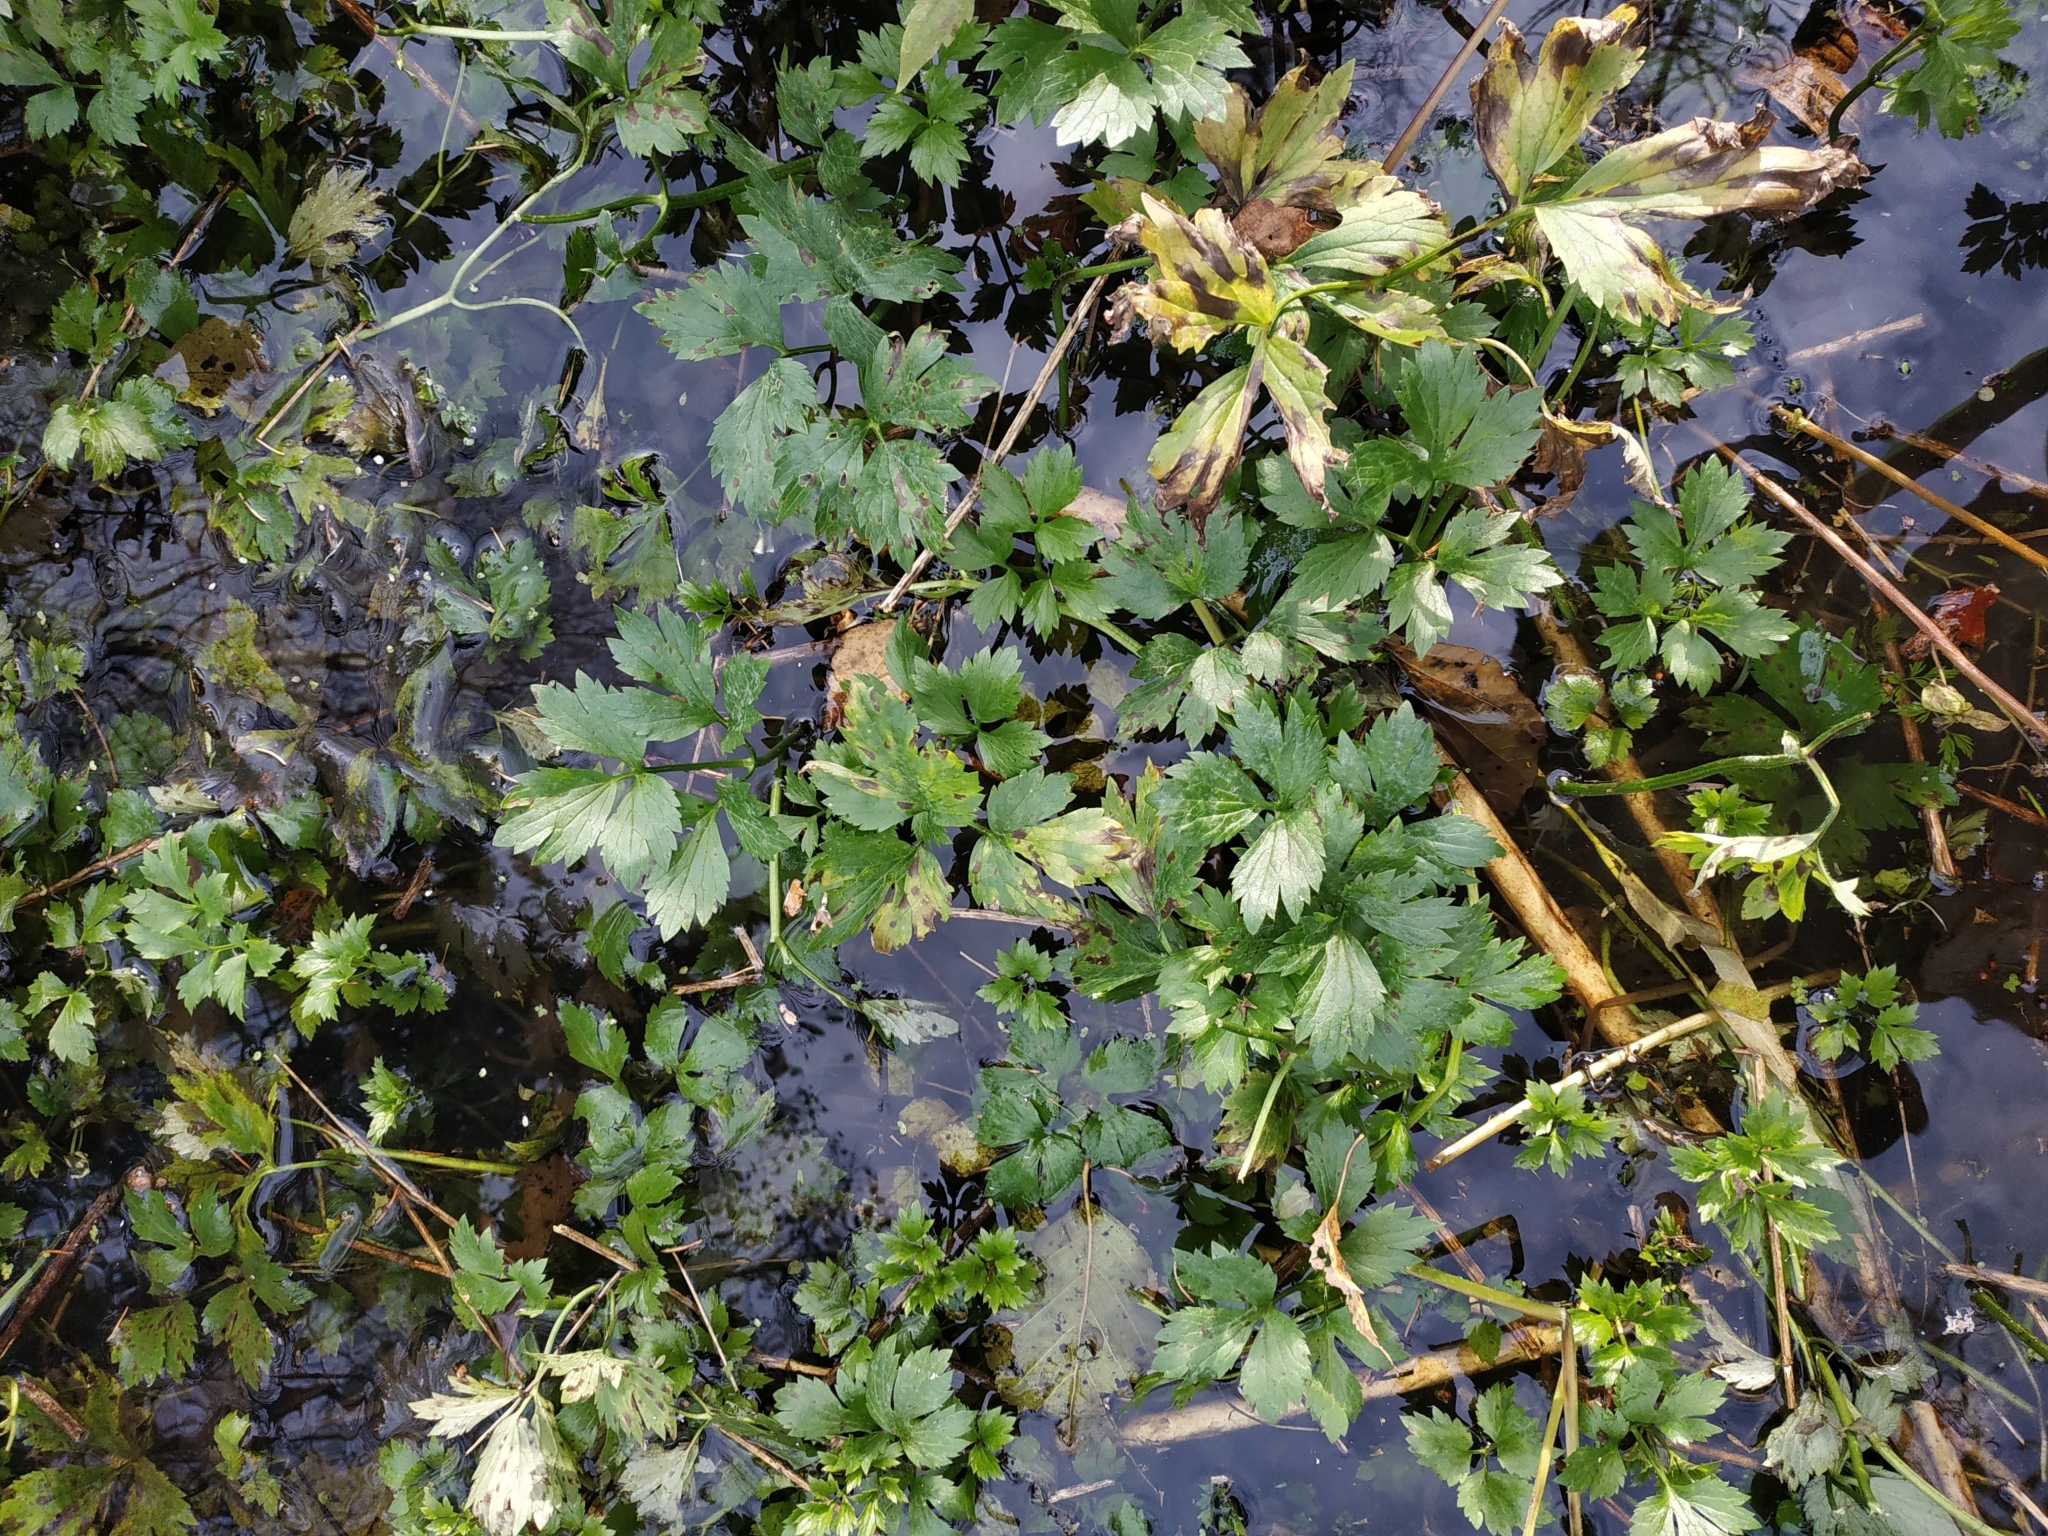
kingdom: Plantae
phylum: Tracheophyta
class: Magnoliopsida
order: Ranunculales
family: Ranunculaceae
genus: Ranunculus
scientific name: Ranunculus repens
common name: Creeping buttercup
